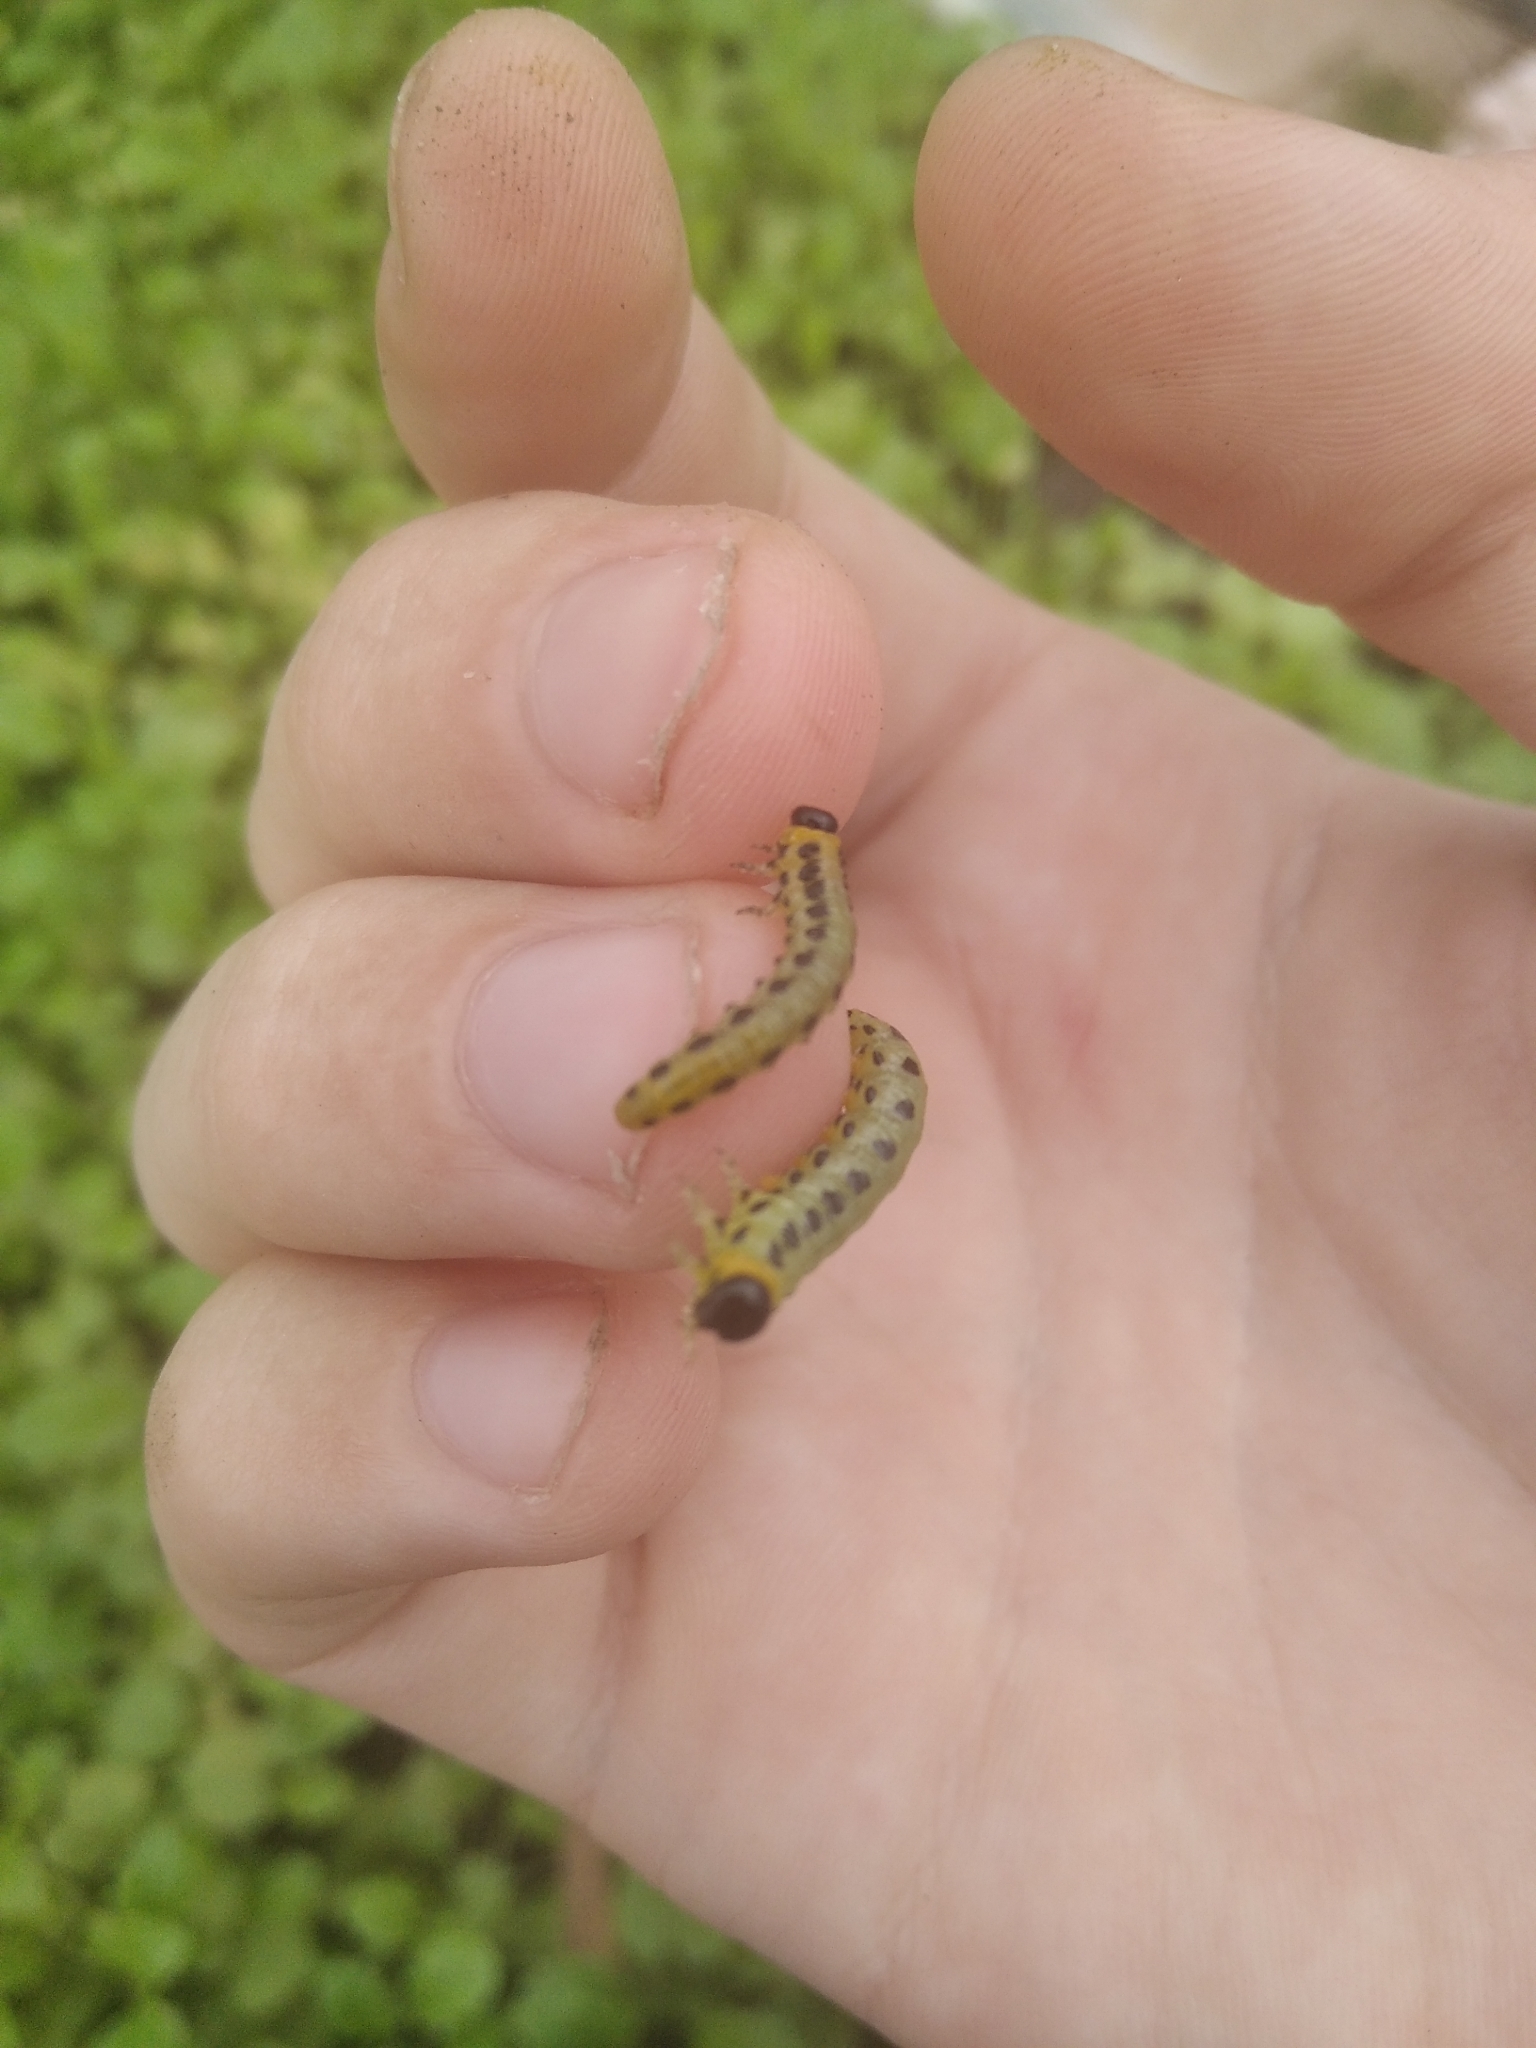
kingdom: Animalia
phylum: Arthropoda
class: Insecta
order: Hymenoptera
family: Tenthredinidae
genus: Craesus
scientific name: Craesus septentrionalis
